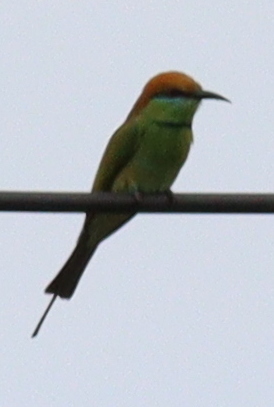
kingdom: Animalia
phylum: Chordata
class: Aves
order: Coraciiformes
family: Meropidae
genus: Merops
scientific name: Merops orientalis
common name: Green bee-eater
